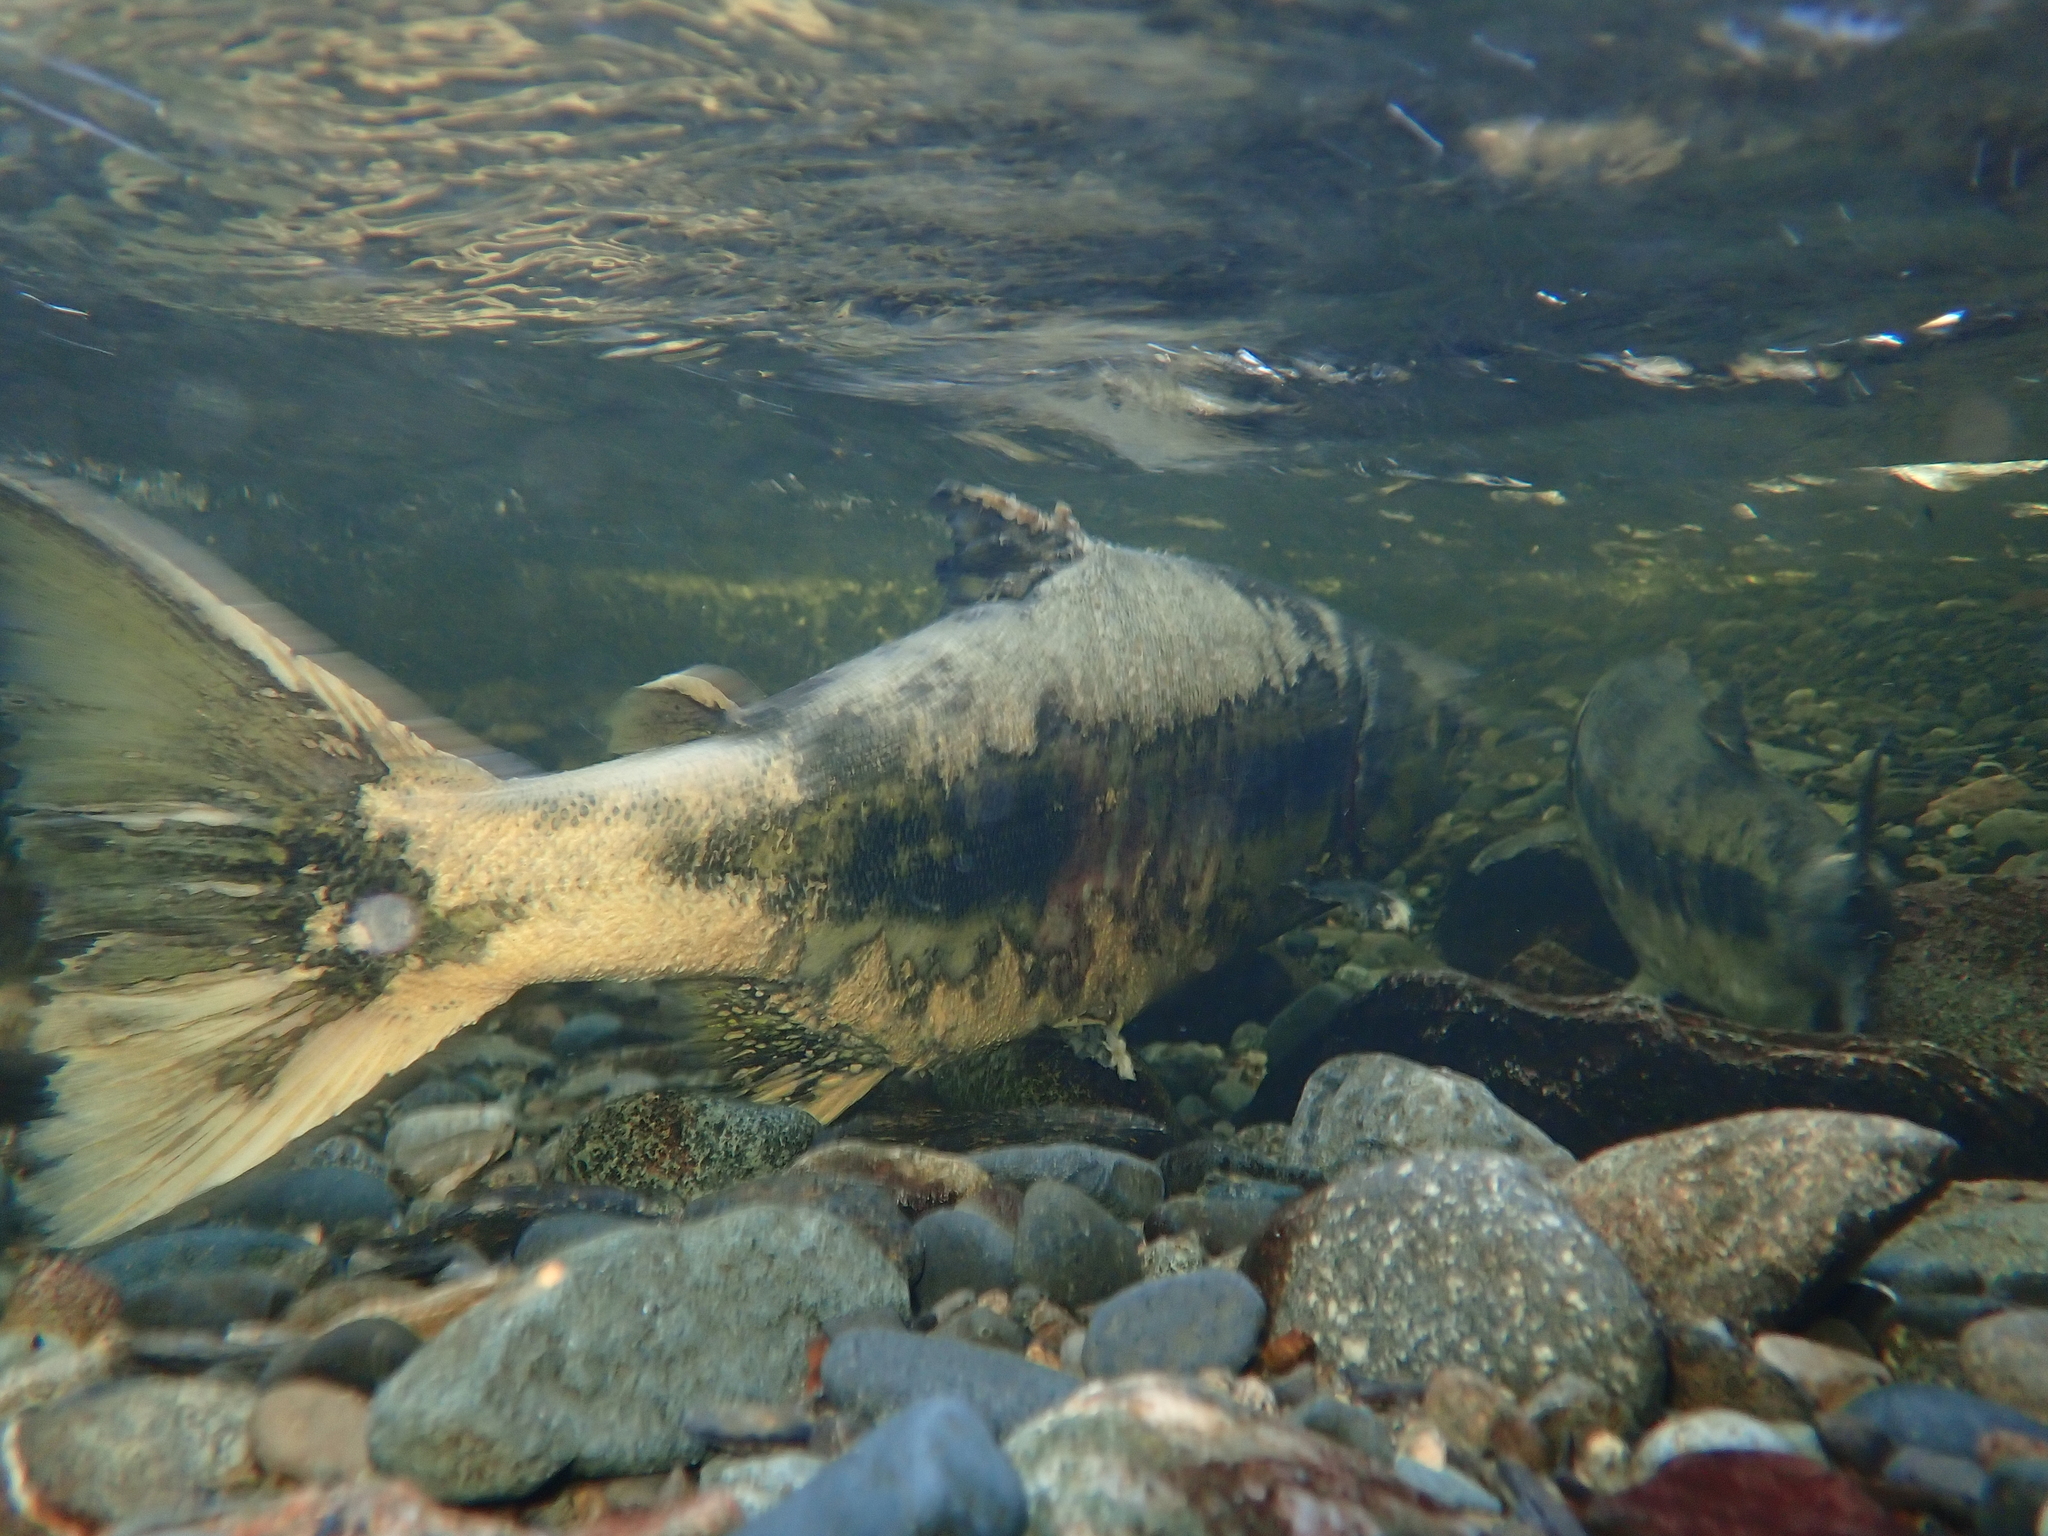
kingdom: Animalia
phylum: Chordata
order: Salmoniformes
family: Salmonidae
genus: Oncorhynchus
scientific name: Oncorhynchus keta
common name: Chum salmon
